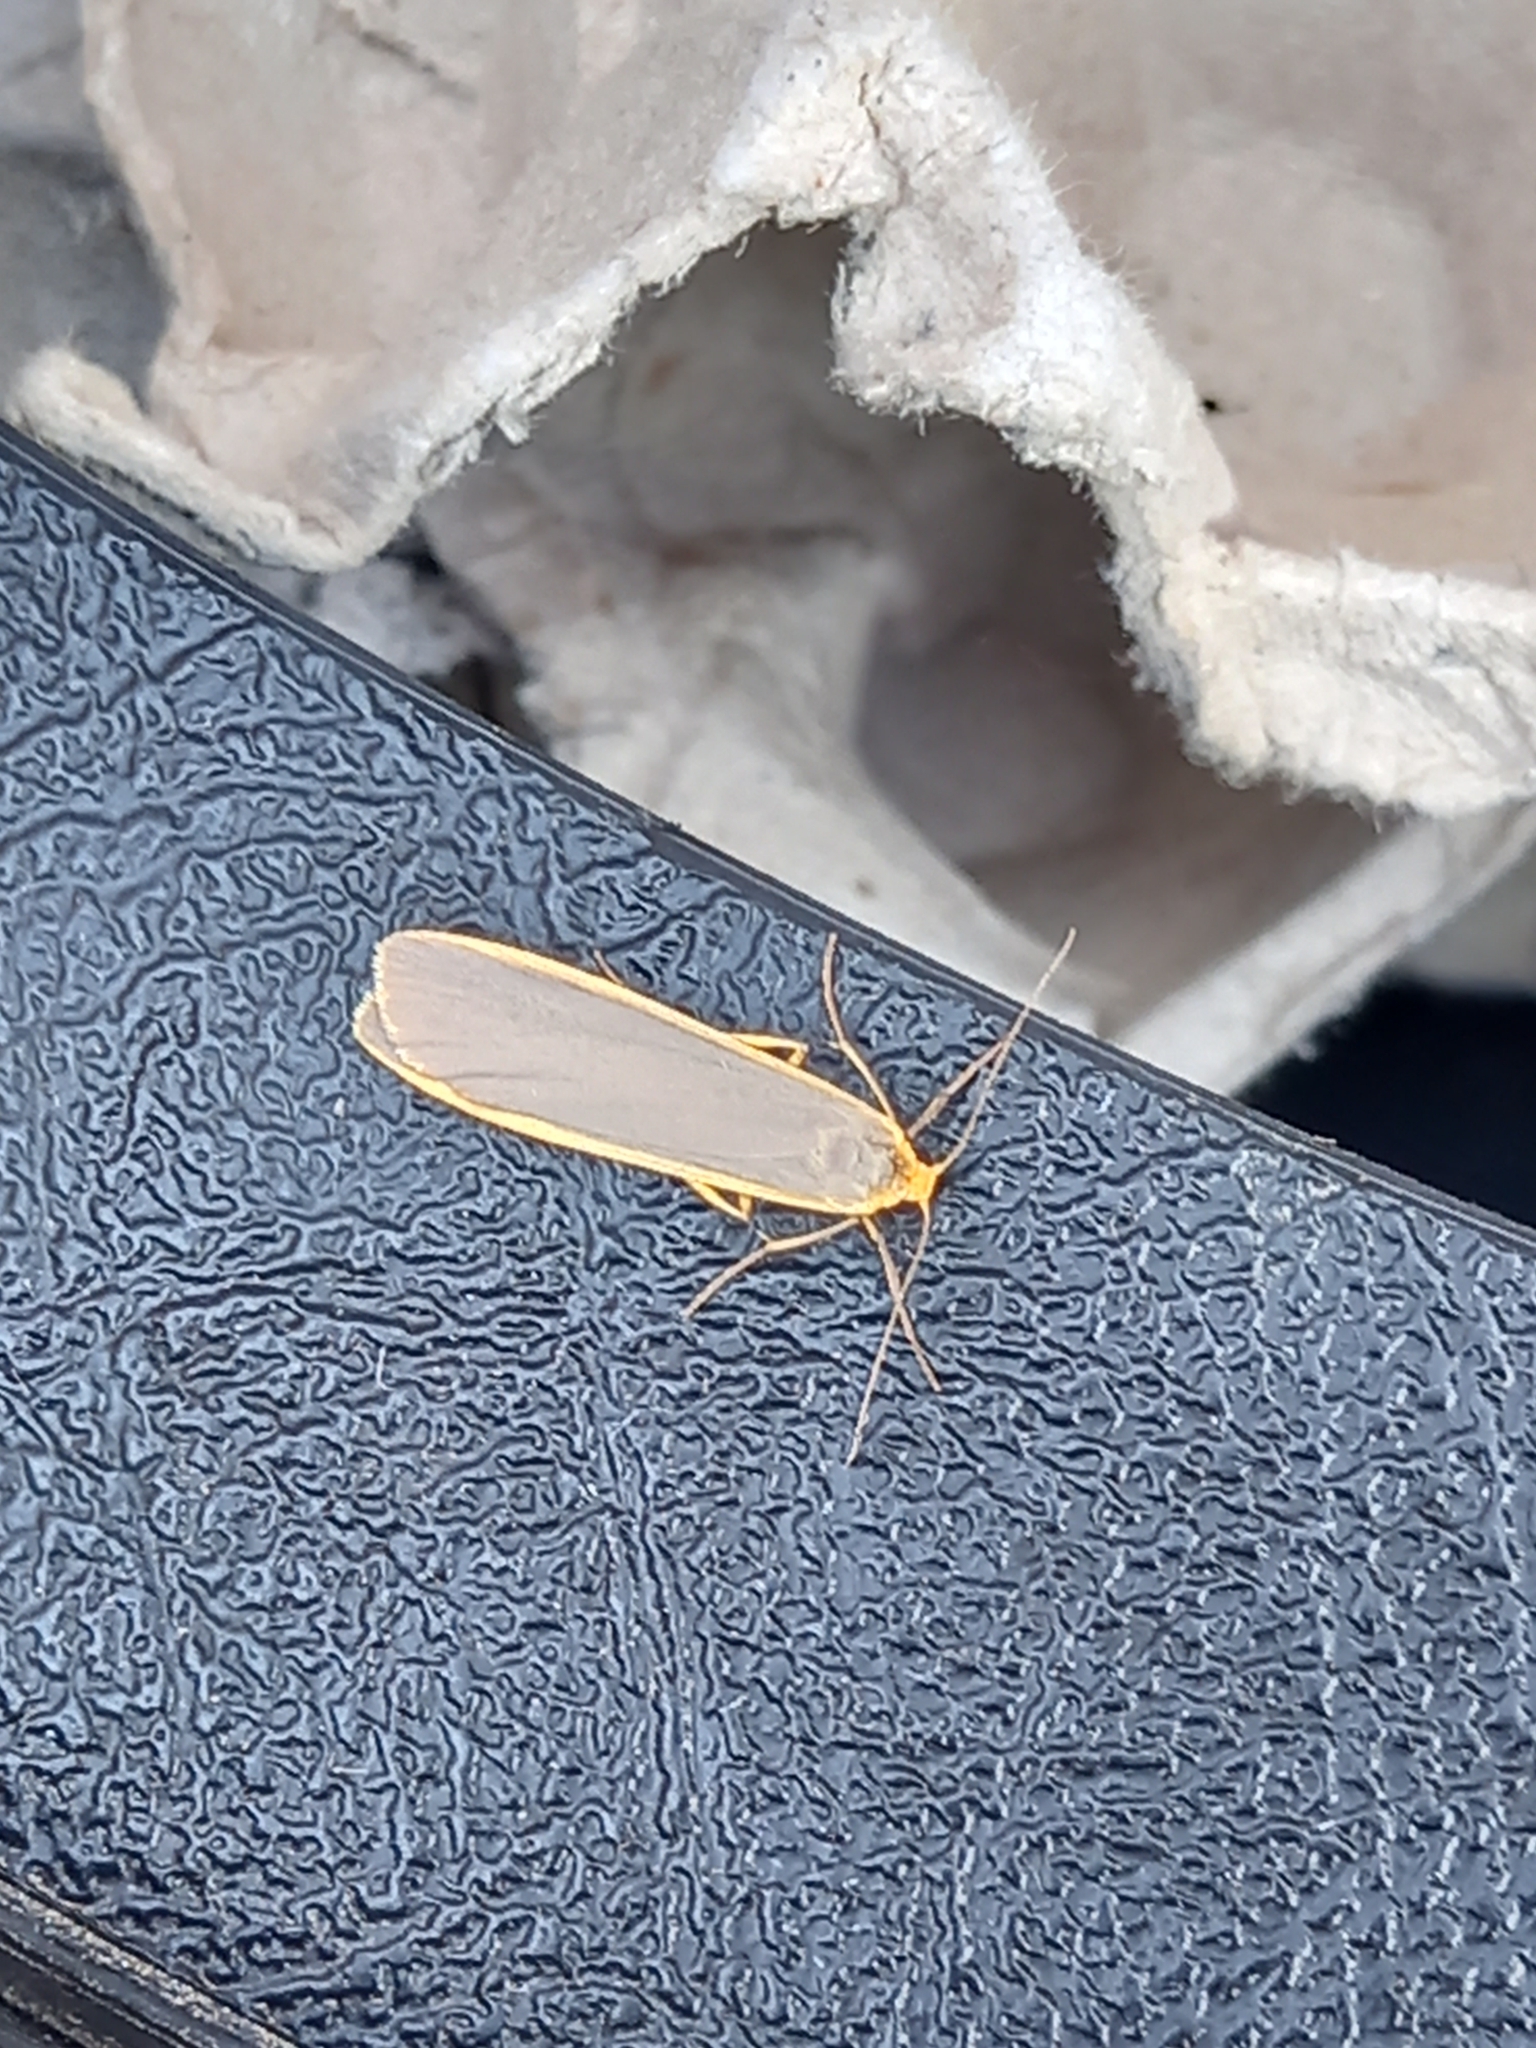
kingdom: Animalia
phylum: Arthropoda
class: Insecta
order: Lepidoptera
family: Erebidae
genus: Nyea
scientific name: Nyea lurideola
